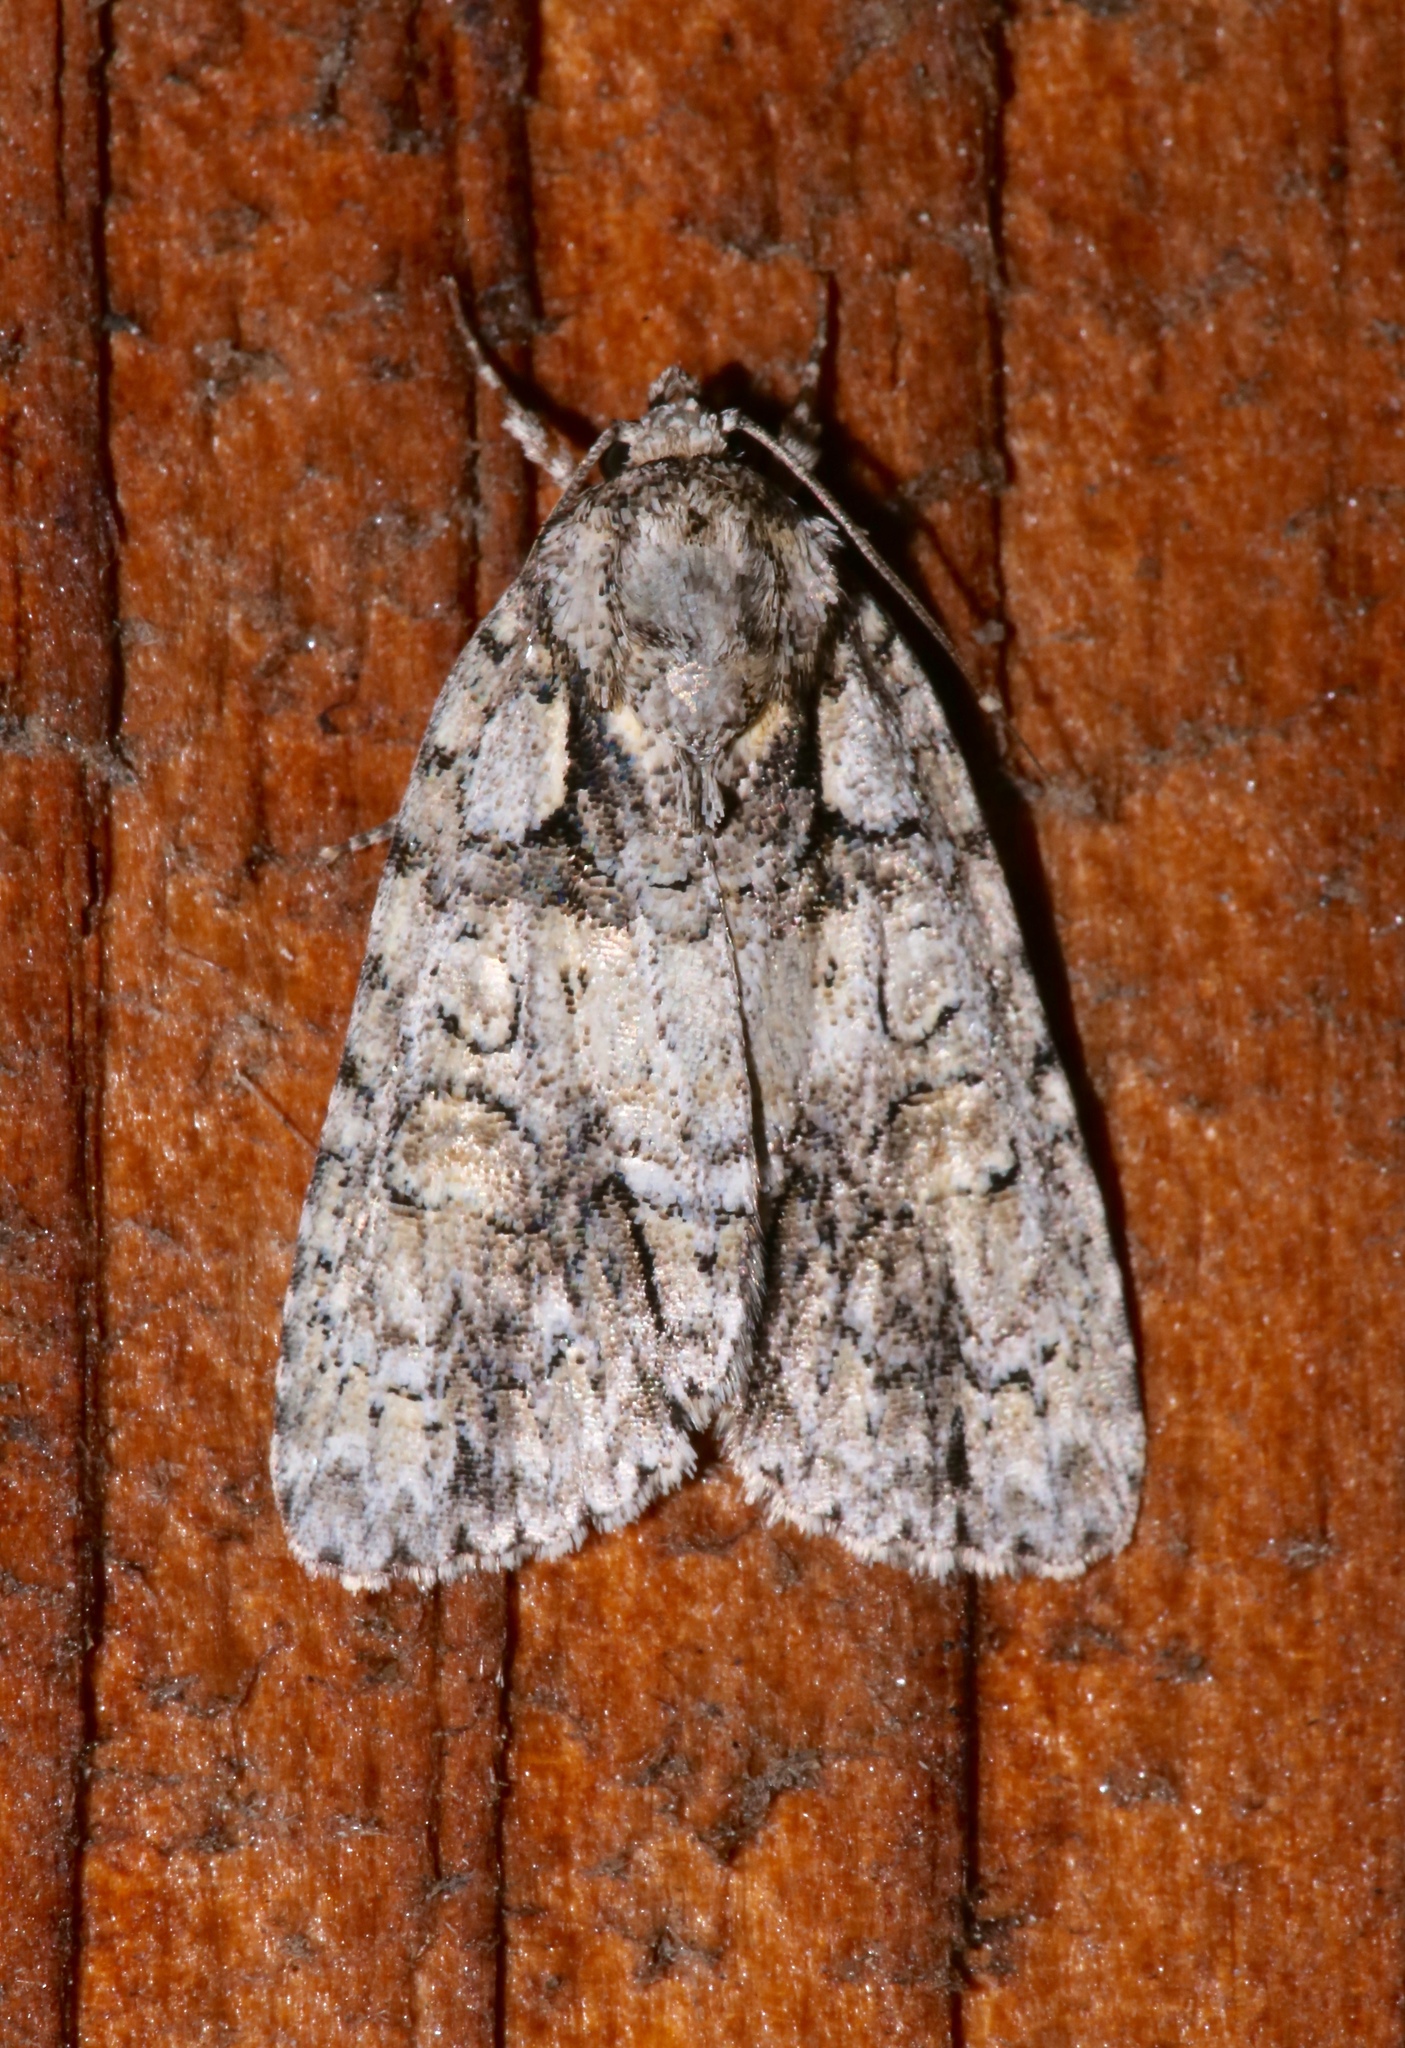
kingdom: Animalia
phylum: Arthropoda
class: Insecta
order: Lepidoptera
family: Noctuidae
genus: Acronicta
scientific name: Acronicta ovata
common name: Epauleted oak dagger
